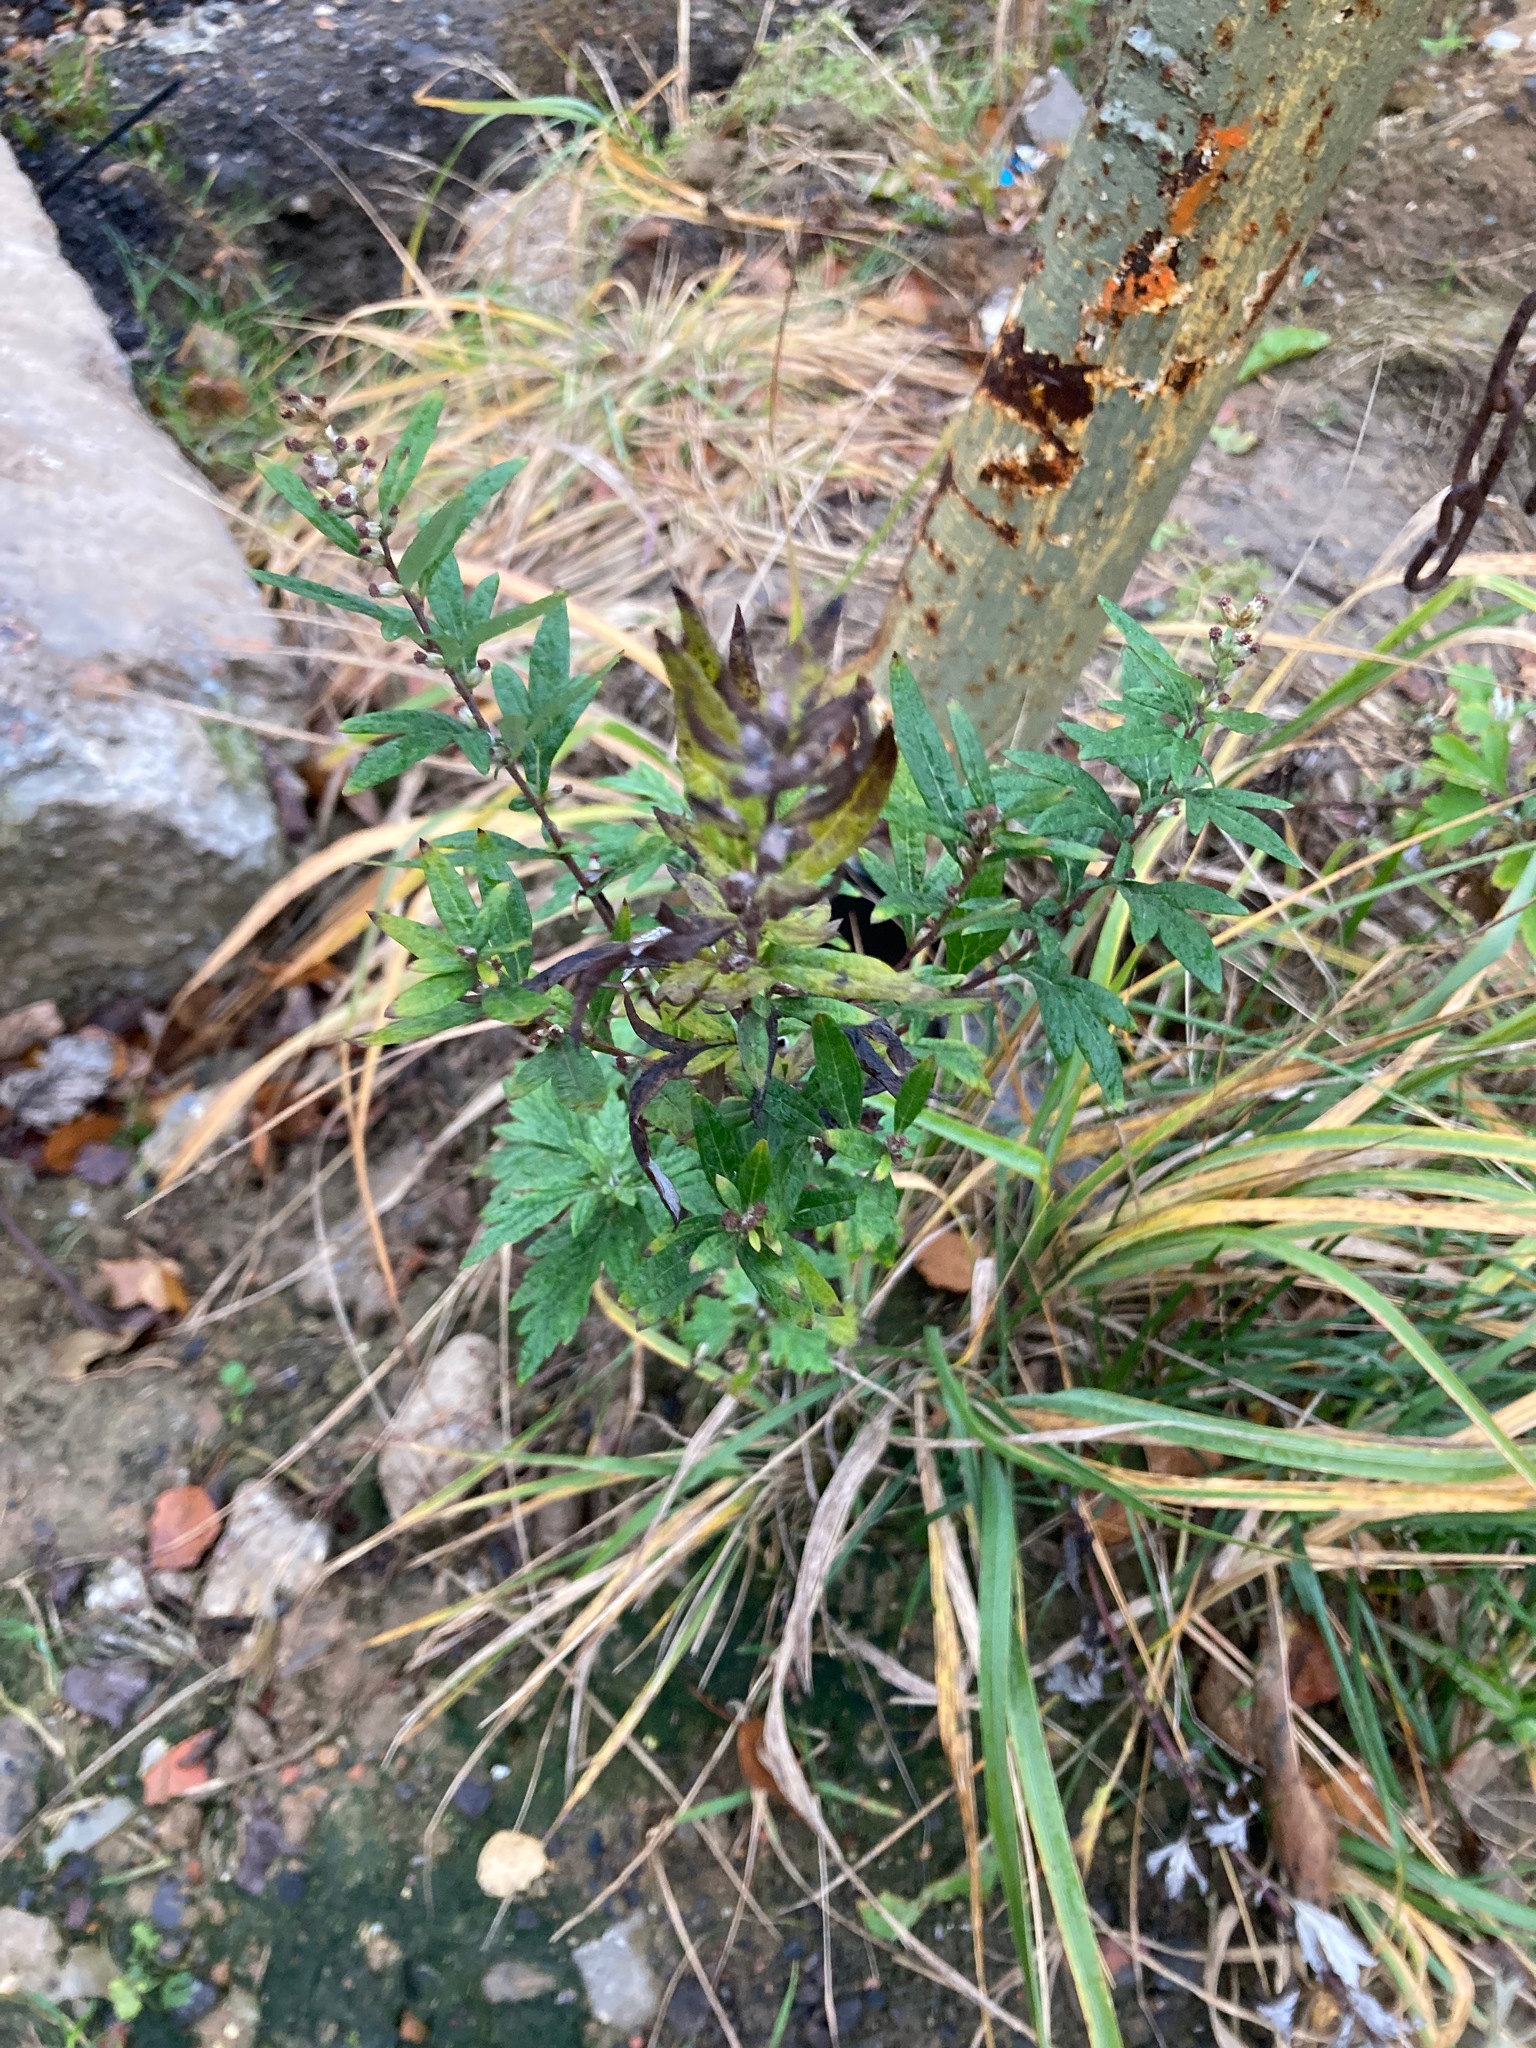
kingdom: Plantae
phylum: Tracheophyta
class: Magnoliopsida
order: Asterales
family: Asteraceae
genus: Artemisia
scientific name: Artemisia vulgaris
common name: Mugwort
